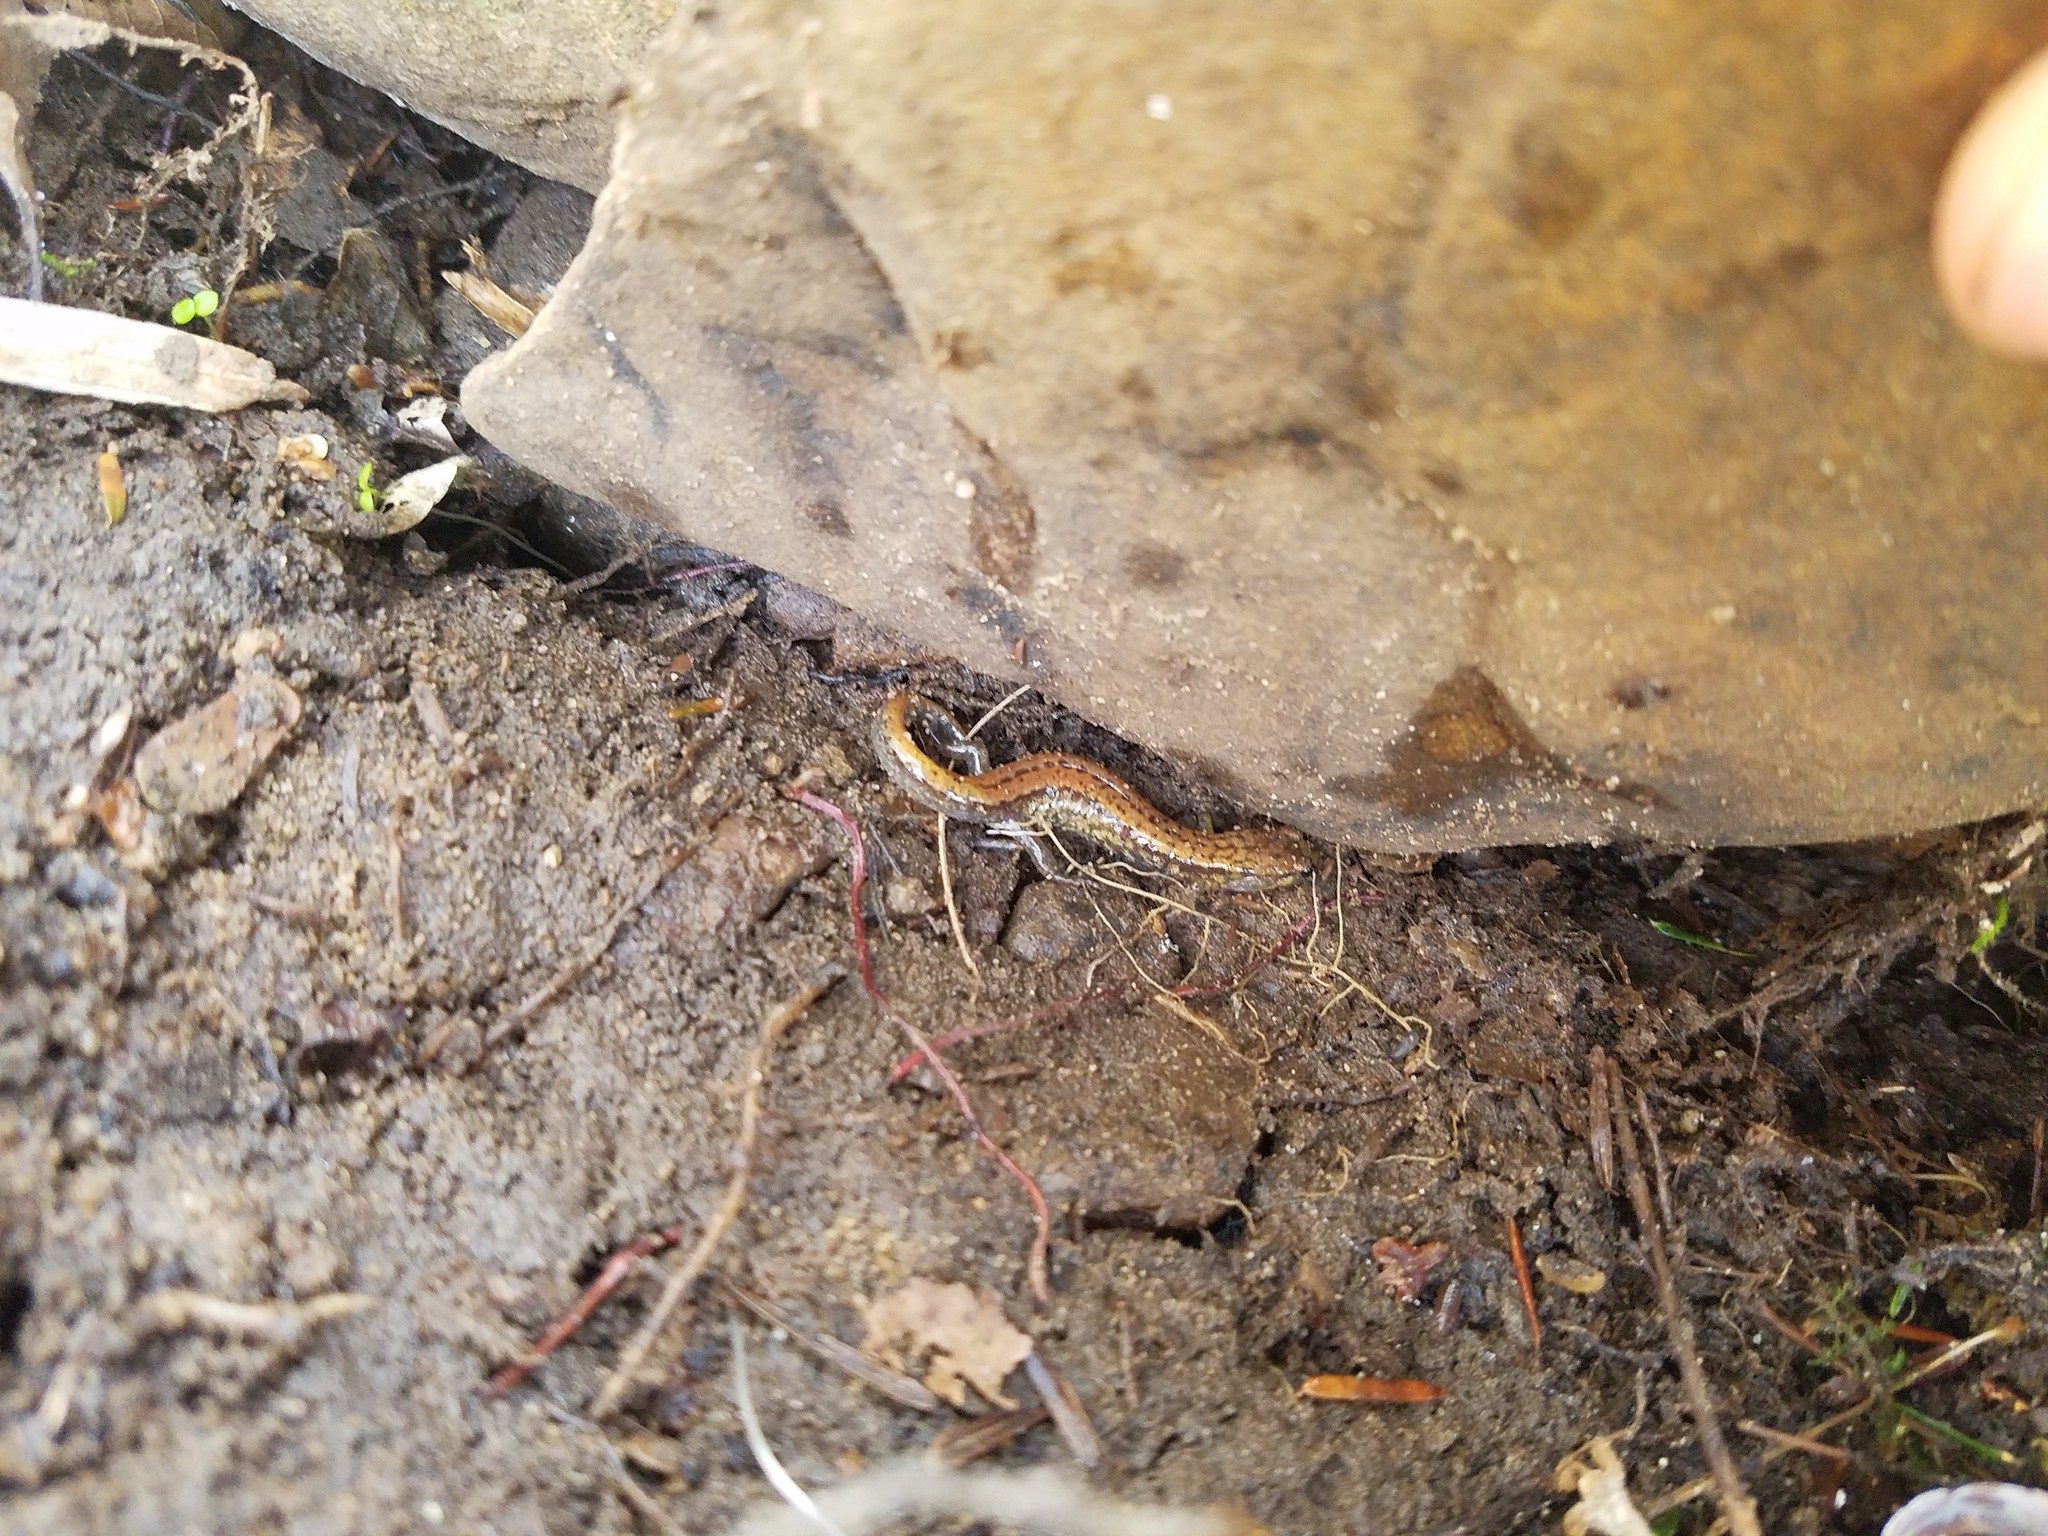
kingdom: Animalia
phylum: Chordata
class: Amphibia
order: Caudata
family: Plethodontidae
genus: Desmognathus
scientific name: Desmognathus ochrophaeus
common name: Allegheny mountain dusky salamander
